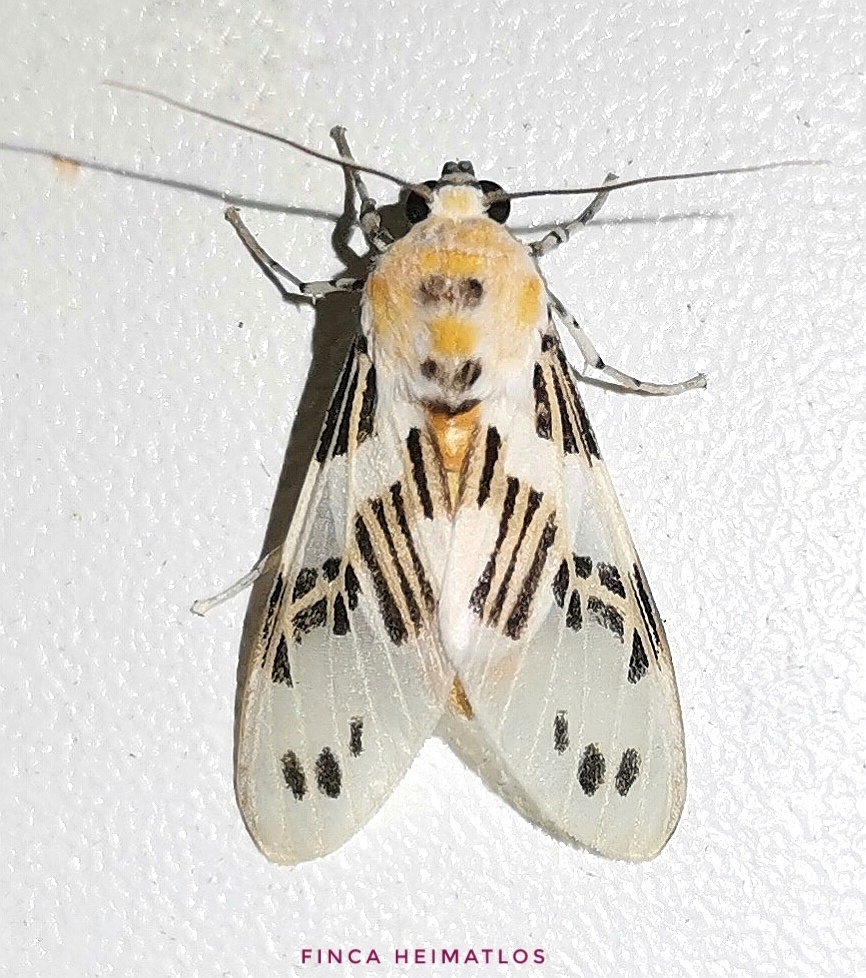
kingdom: Animalia
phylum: Arthropoda
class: Insecta
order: Lepidoptera
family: Erebidae
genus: Idalus
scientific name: Idalus daga
